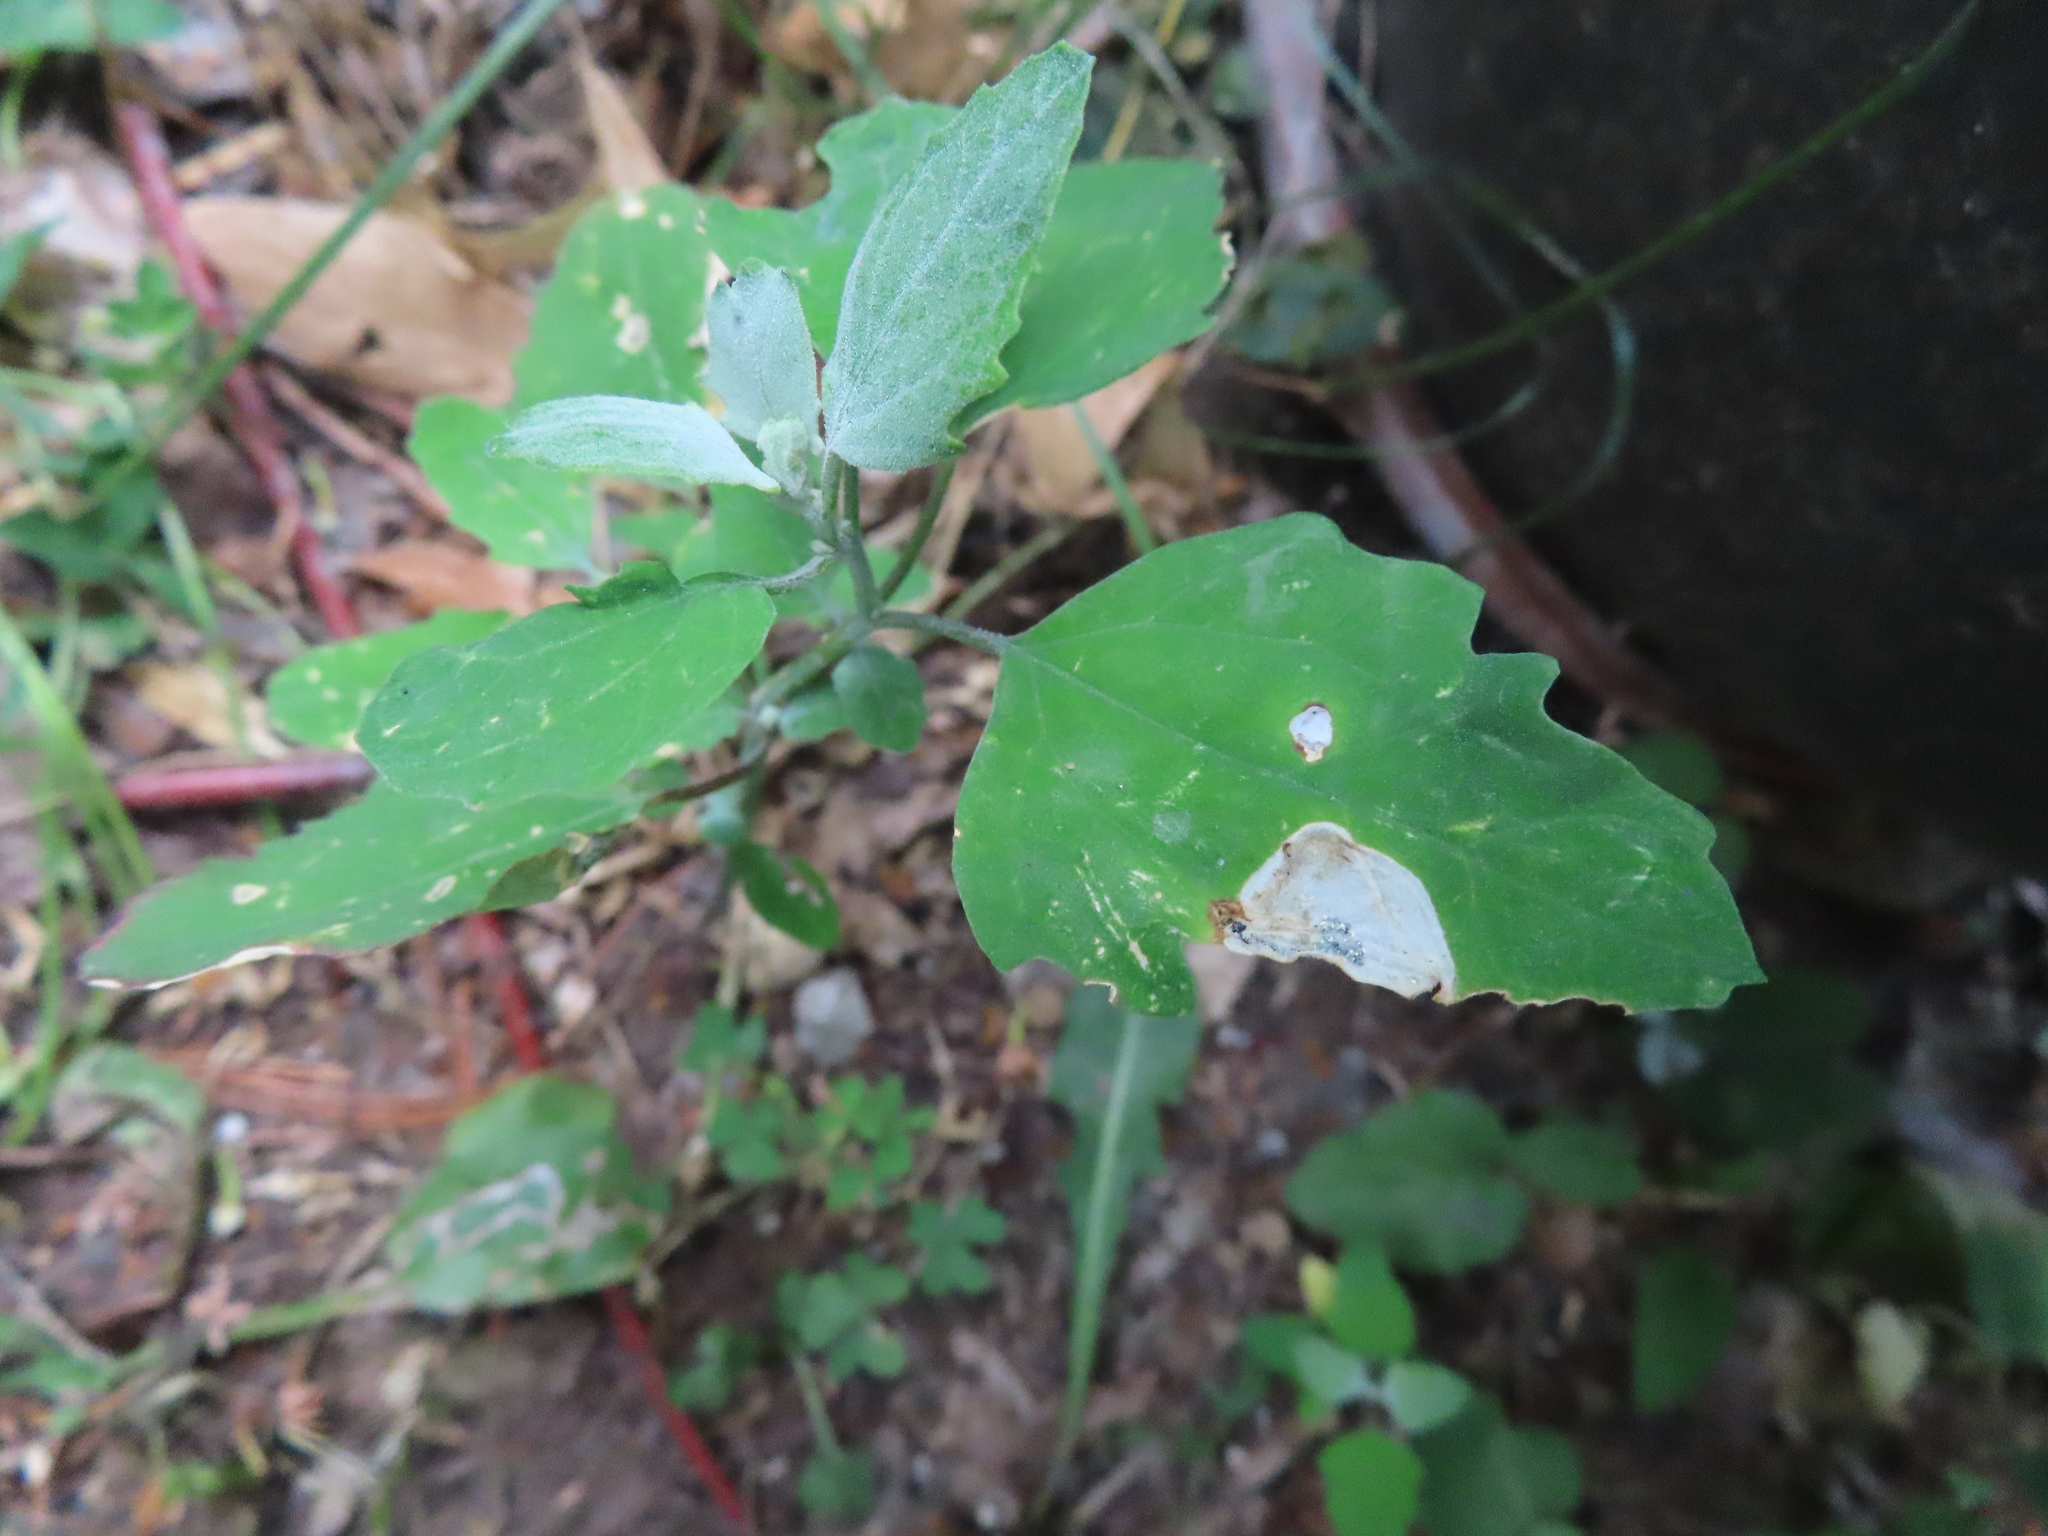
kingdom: Animalia
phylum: Arthropoda
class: Insecta
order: Lepidoptera
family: Gelechiidae
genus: Chrysoesthia
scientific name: Chrysoesthia sexguttella
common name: Moth
